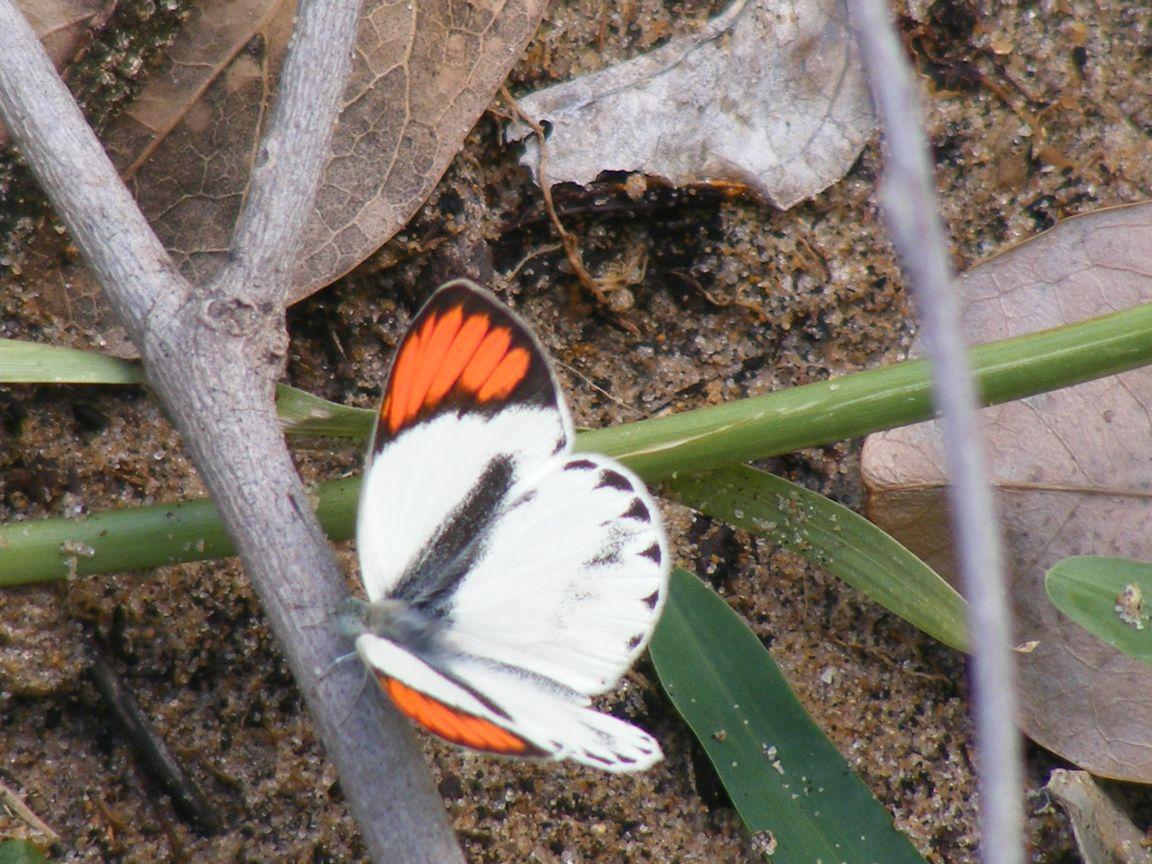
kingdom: Animalia
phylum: Arthropoda
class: Insecta
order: Lepidoptera
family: Pieridae
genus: Colotis
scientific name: Colotis euippe
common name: Round-winged orange tip
